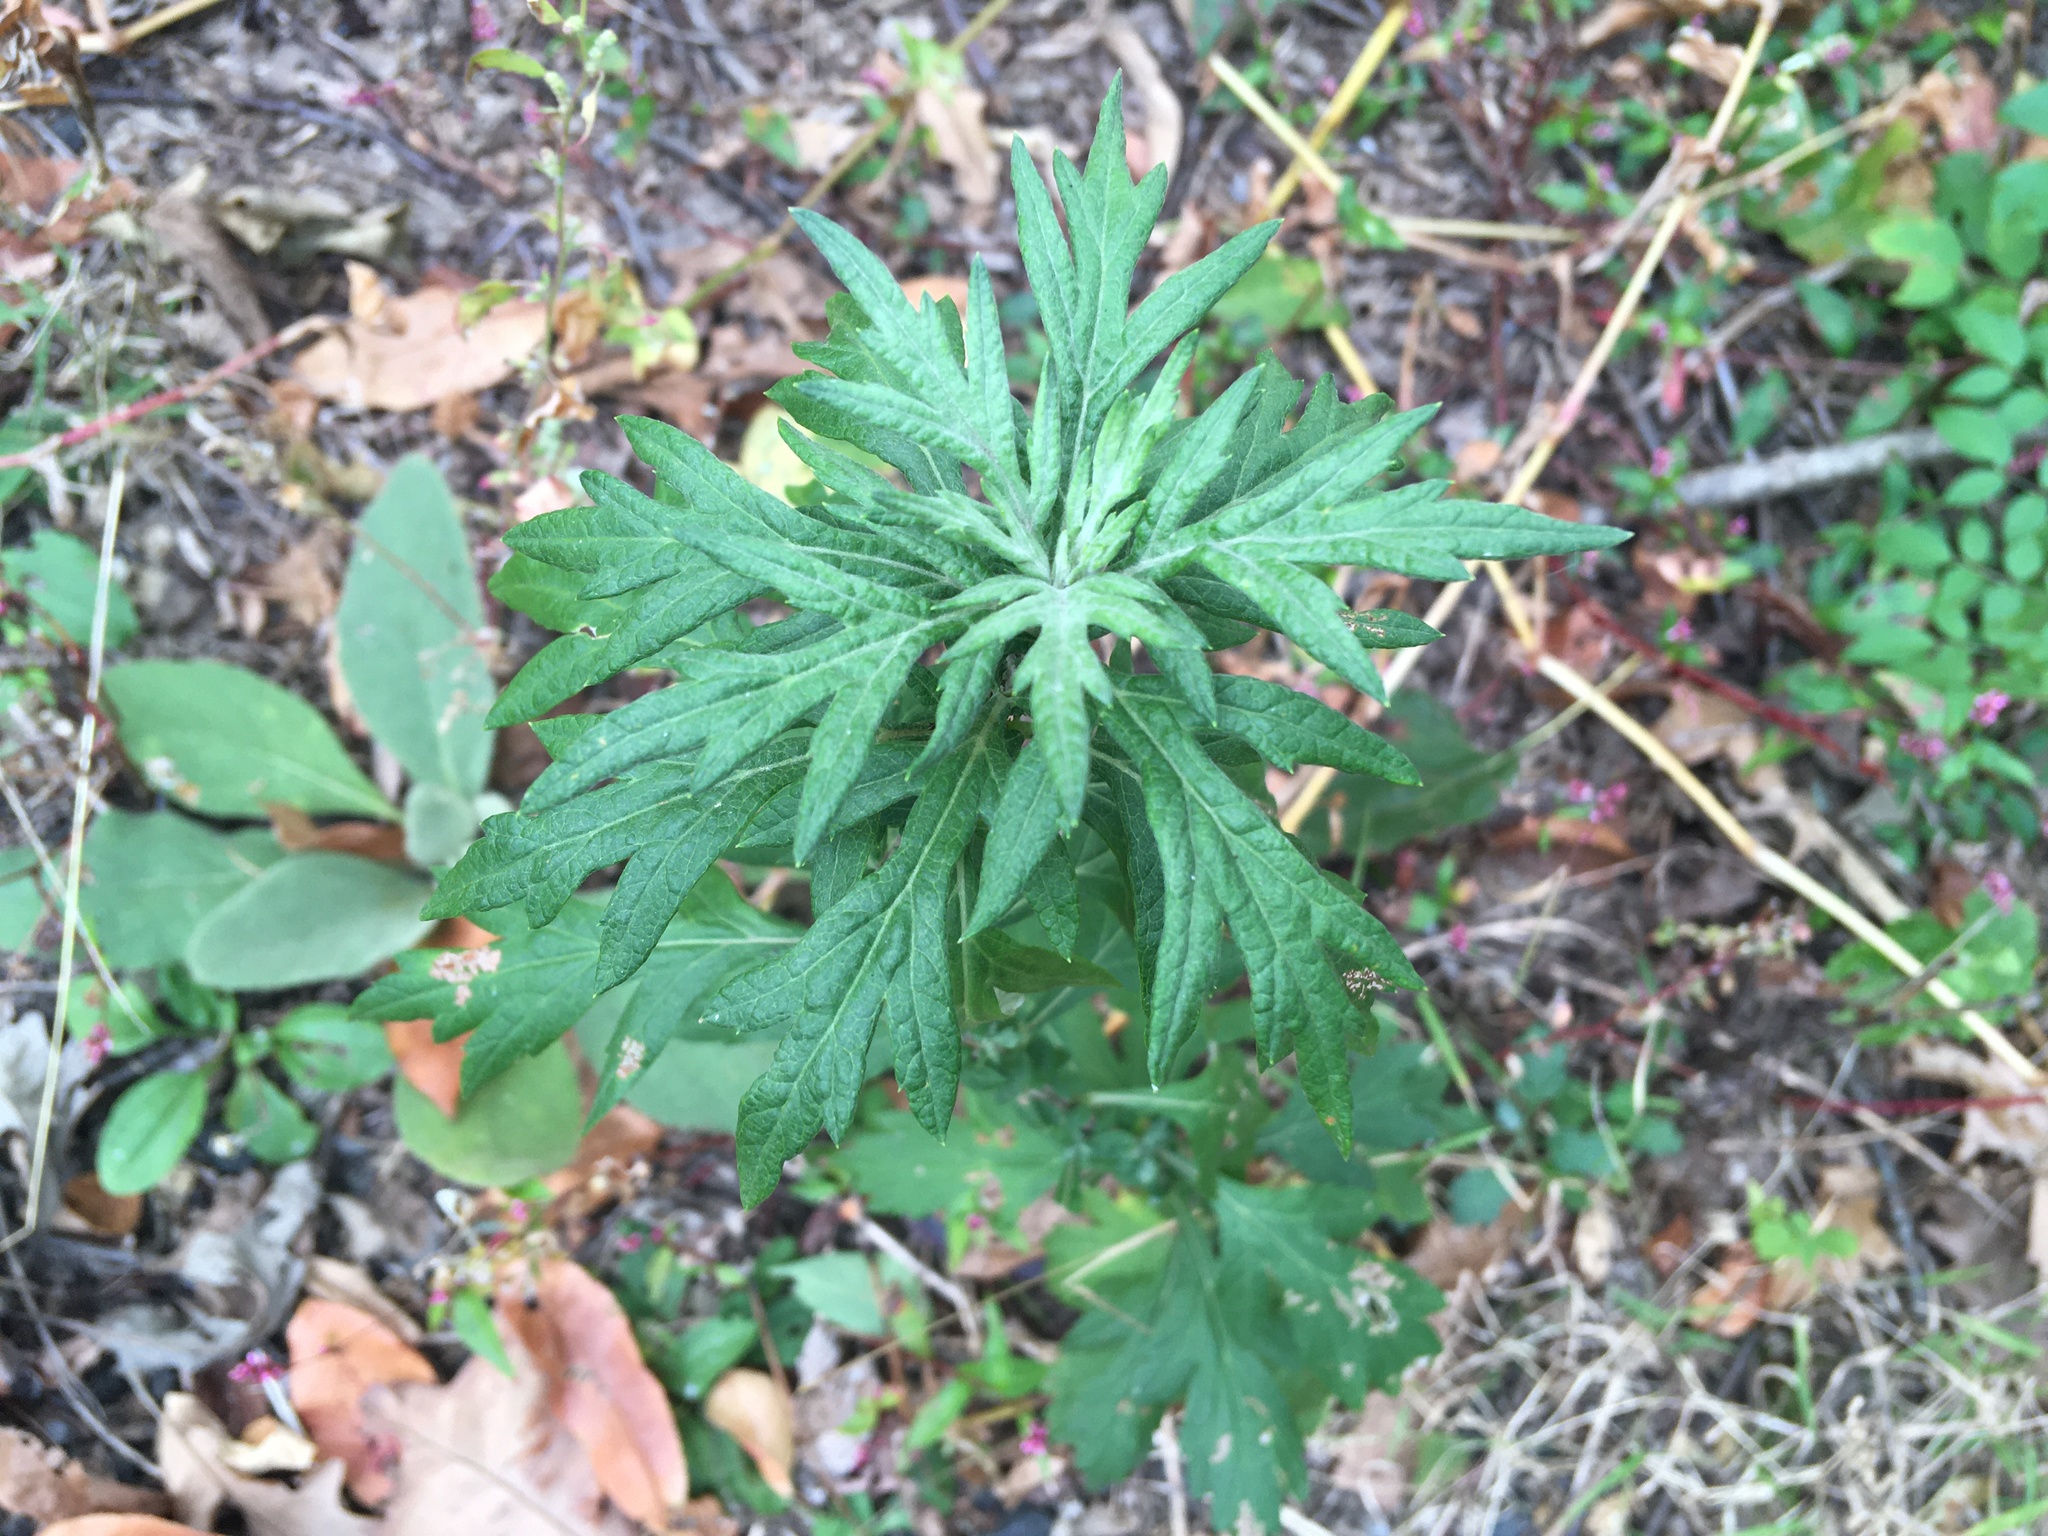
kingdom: Plantae
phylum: Tracheophyta
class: Magnoliopsida
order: Asterales
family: Asteraceae
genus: Artemisia
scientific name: Artemisia vulgaris
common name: Mugwort
